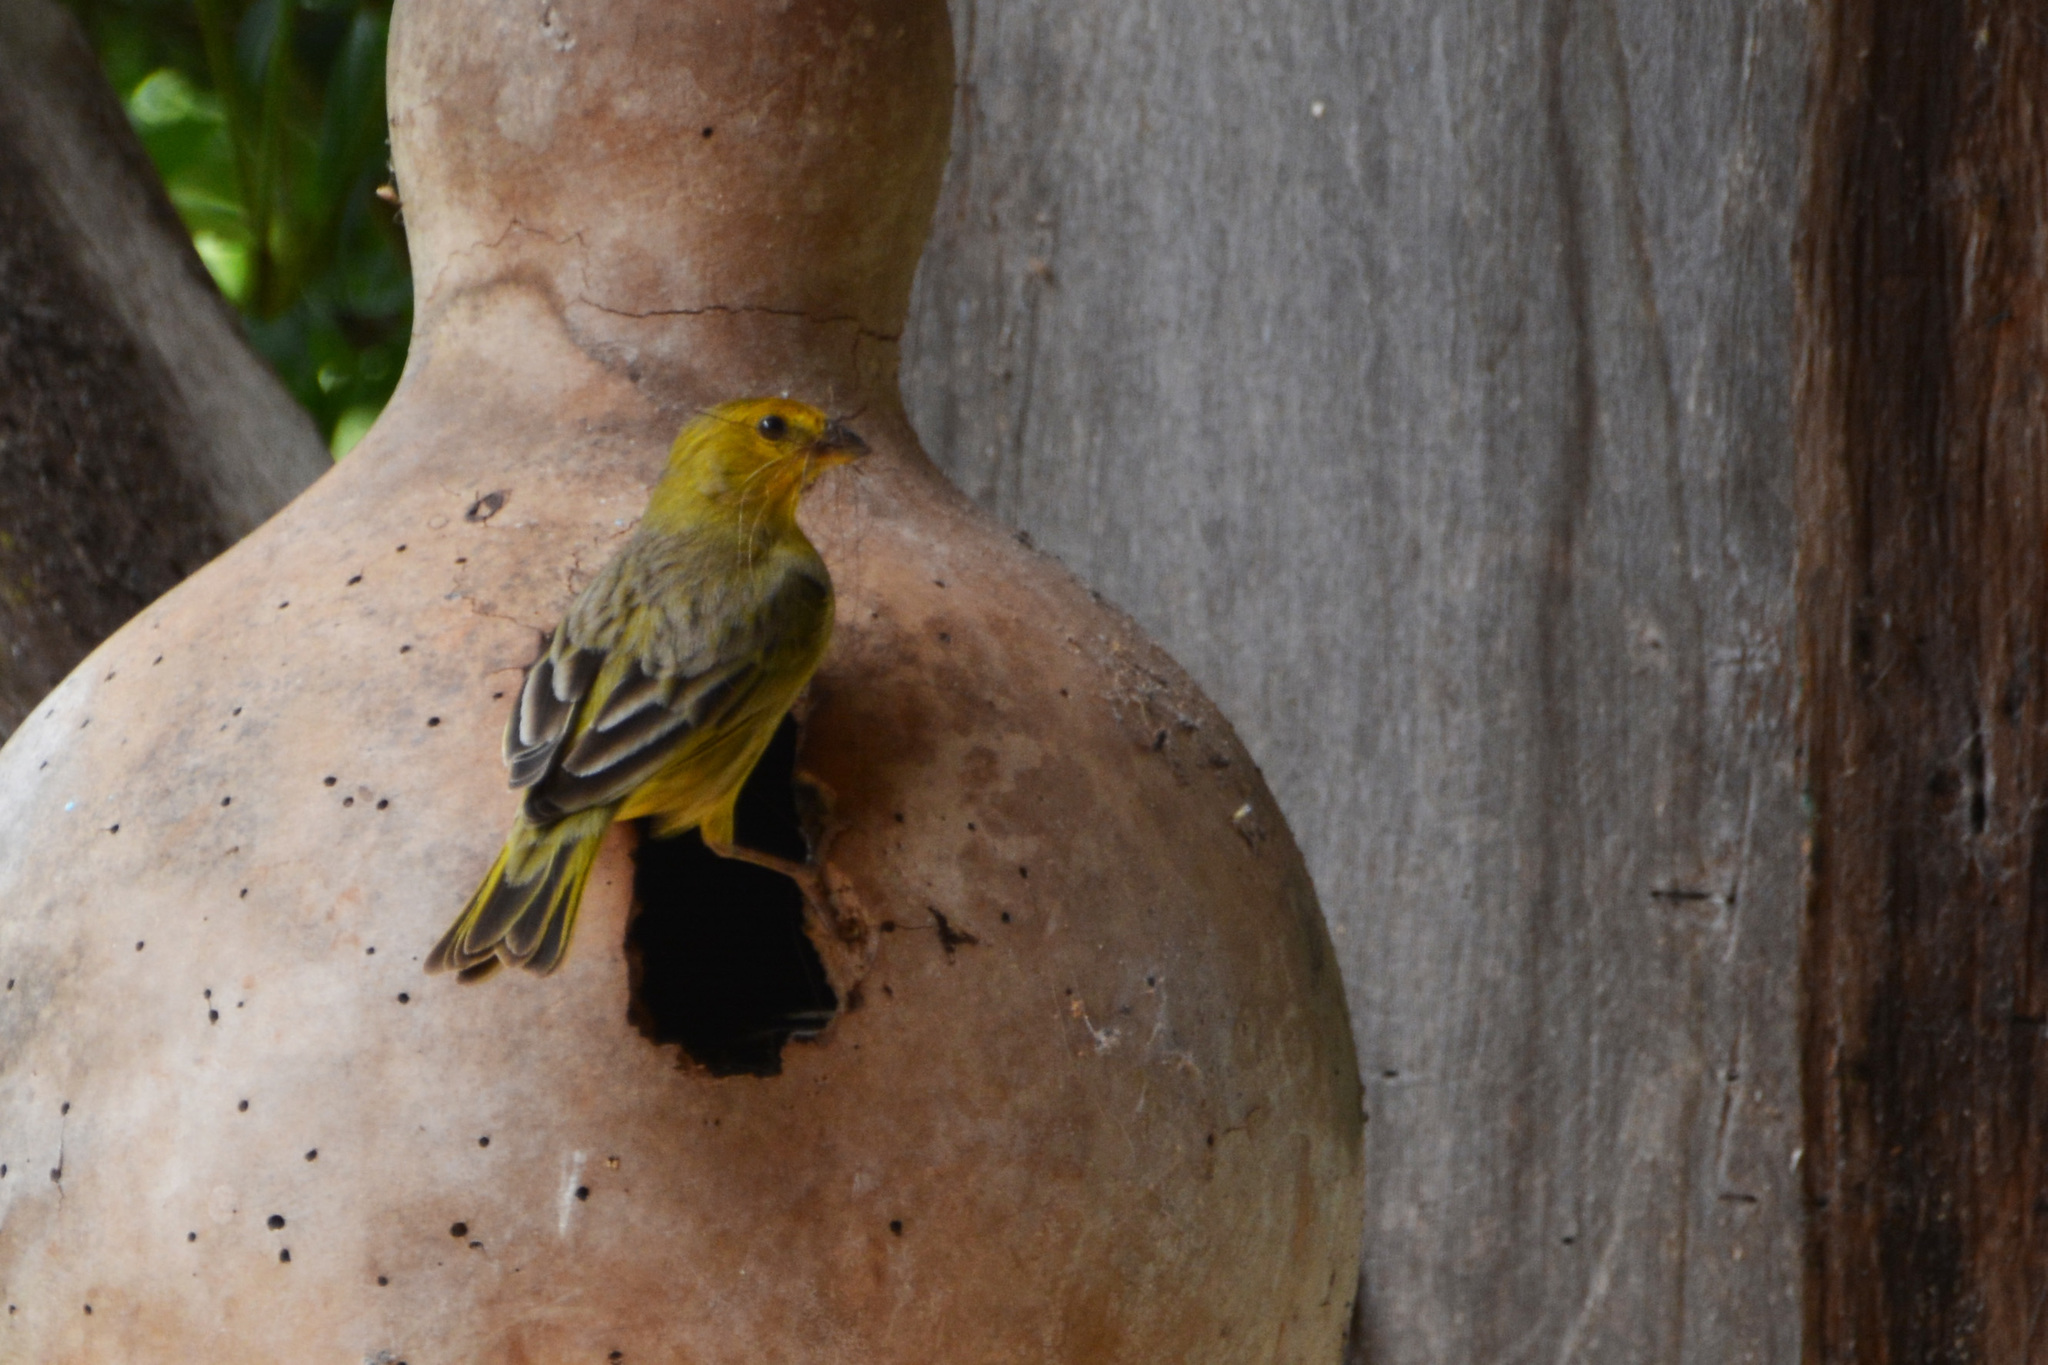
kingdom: Animalia
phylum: Chordata
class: Aves
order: Passeriformes
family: Thraupidae
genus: Sicalis
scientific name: Sicalis flaveola
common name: Saffron finch
